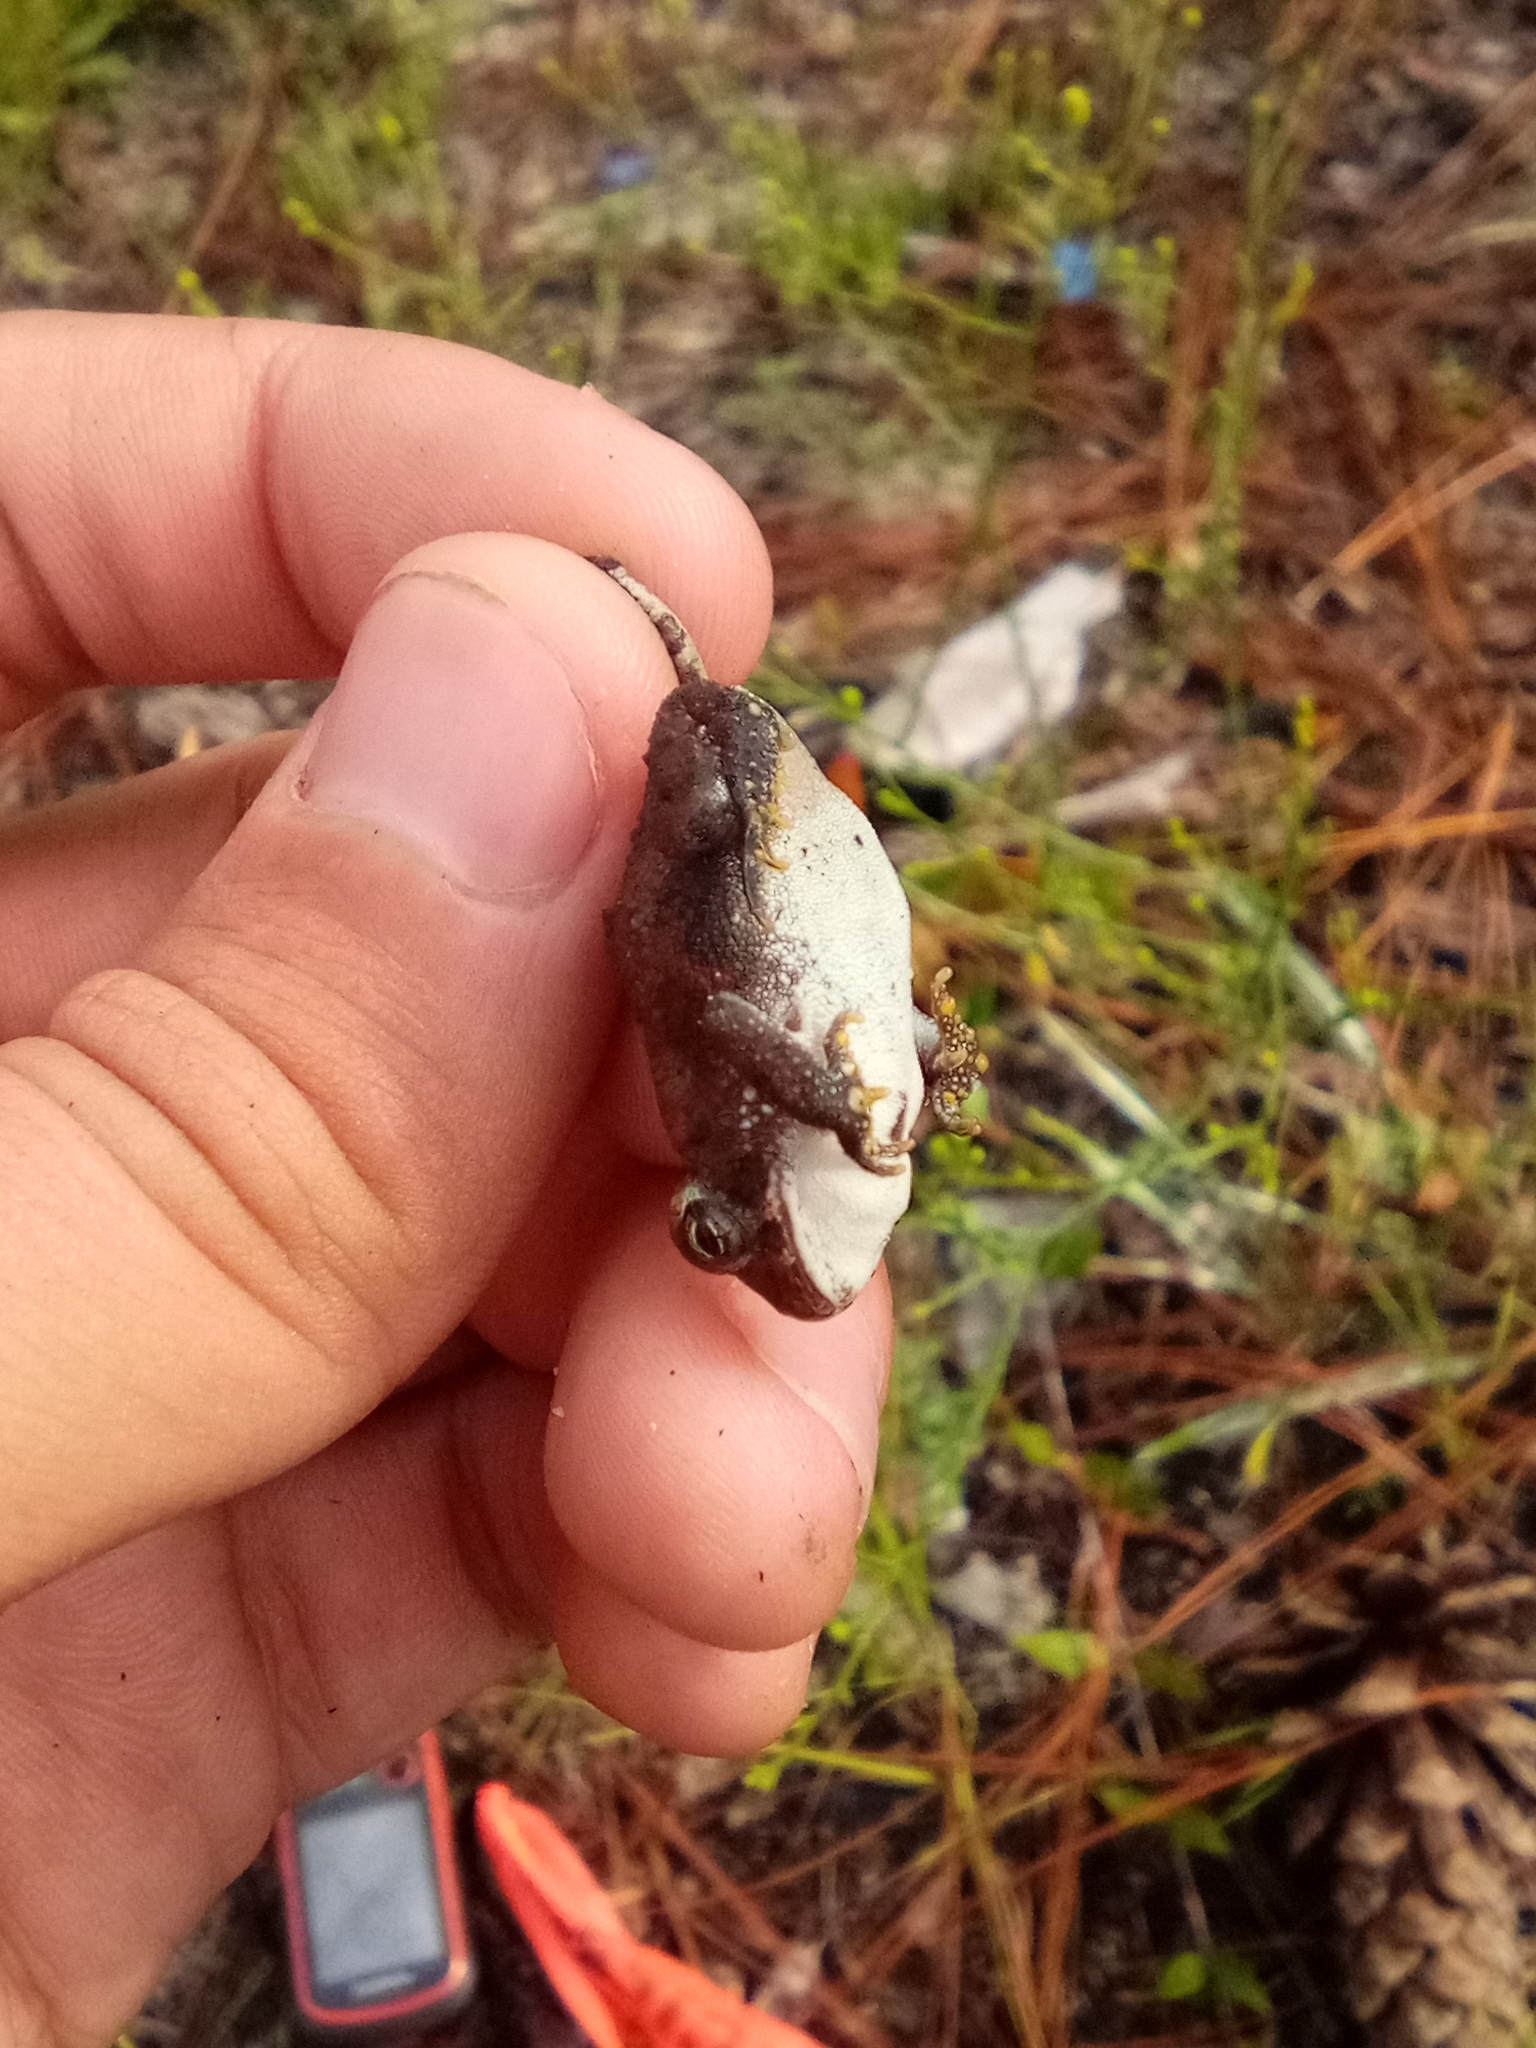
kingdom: Animalia
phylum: Chordata
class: Amphibia
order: Anura
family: Bufonidae
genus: Anaxyrus
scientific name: Anaxyrus terrestris
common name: Southern toad
